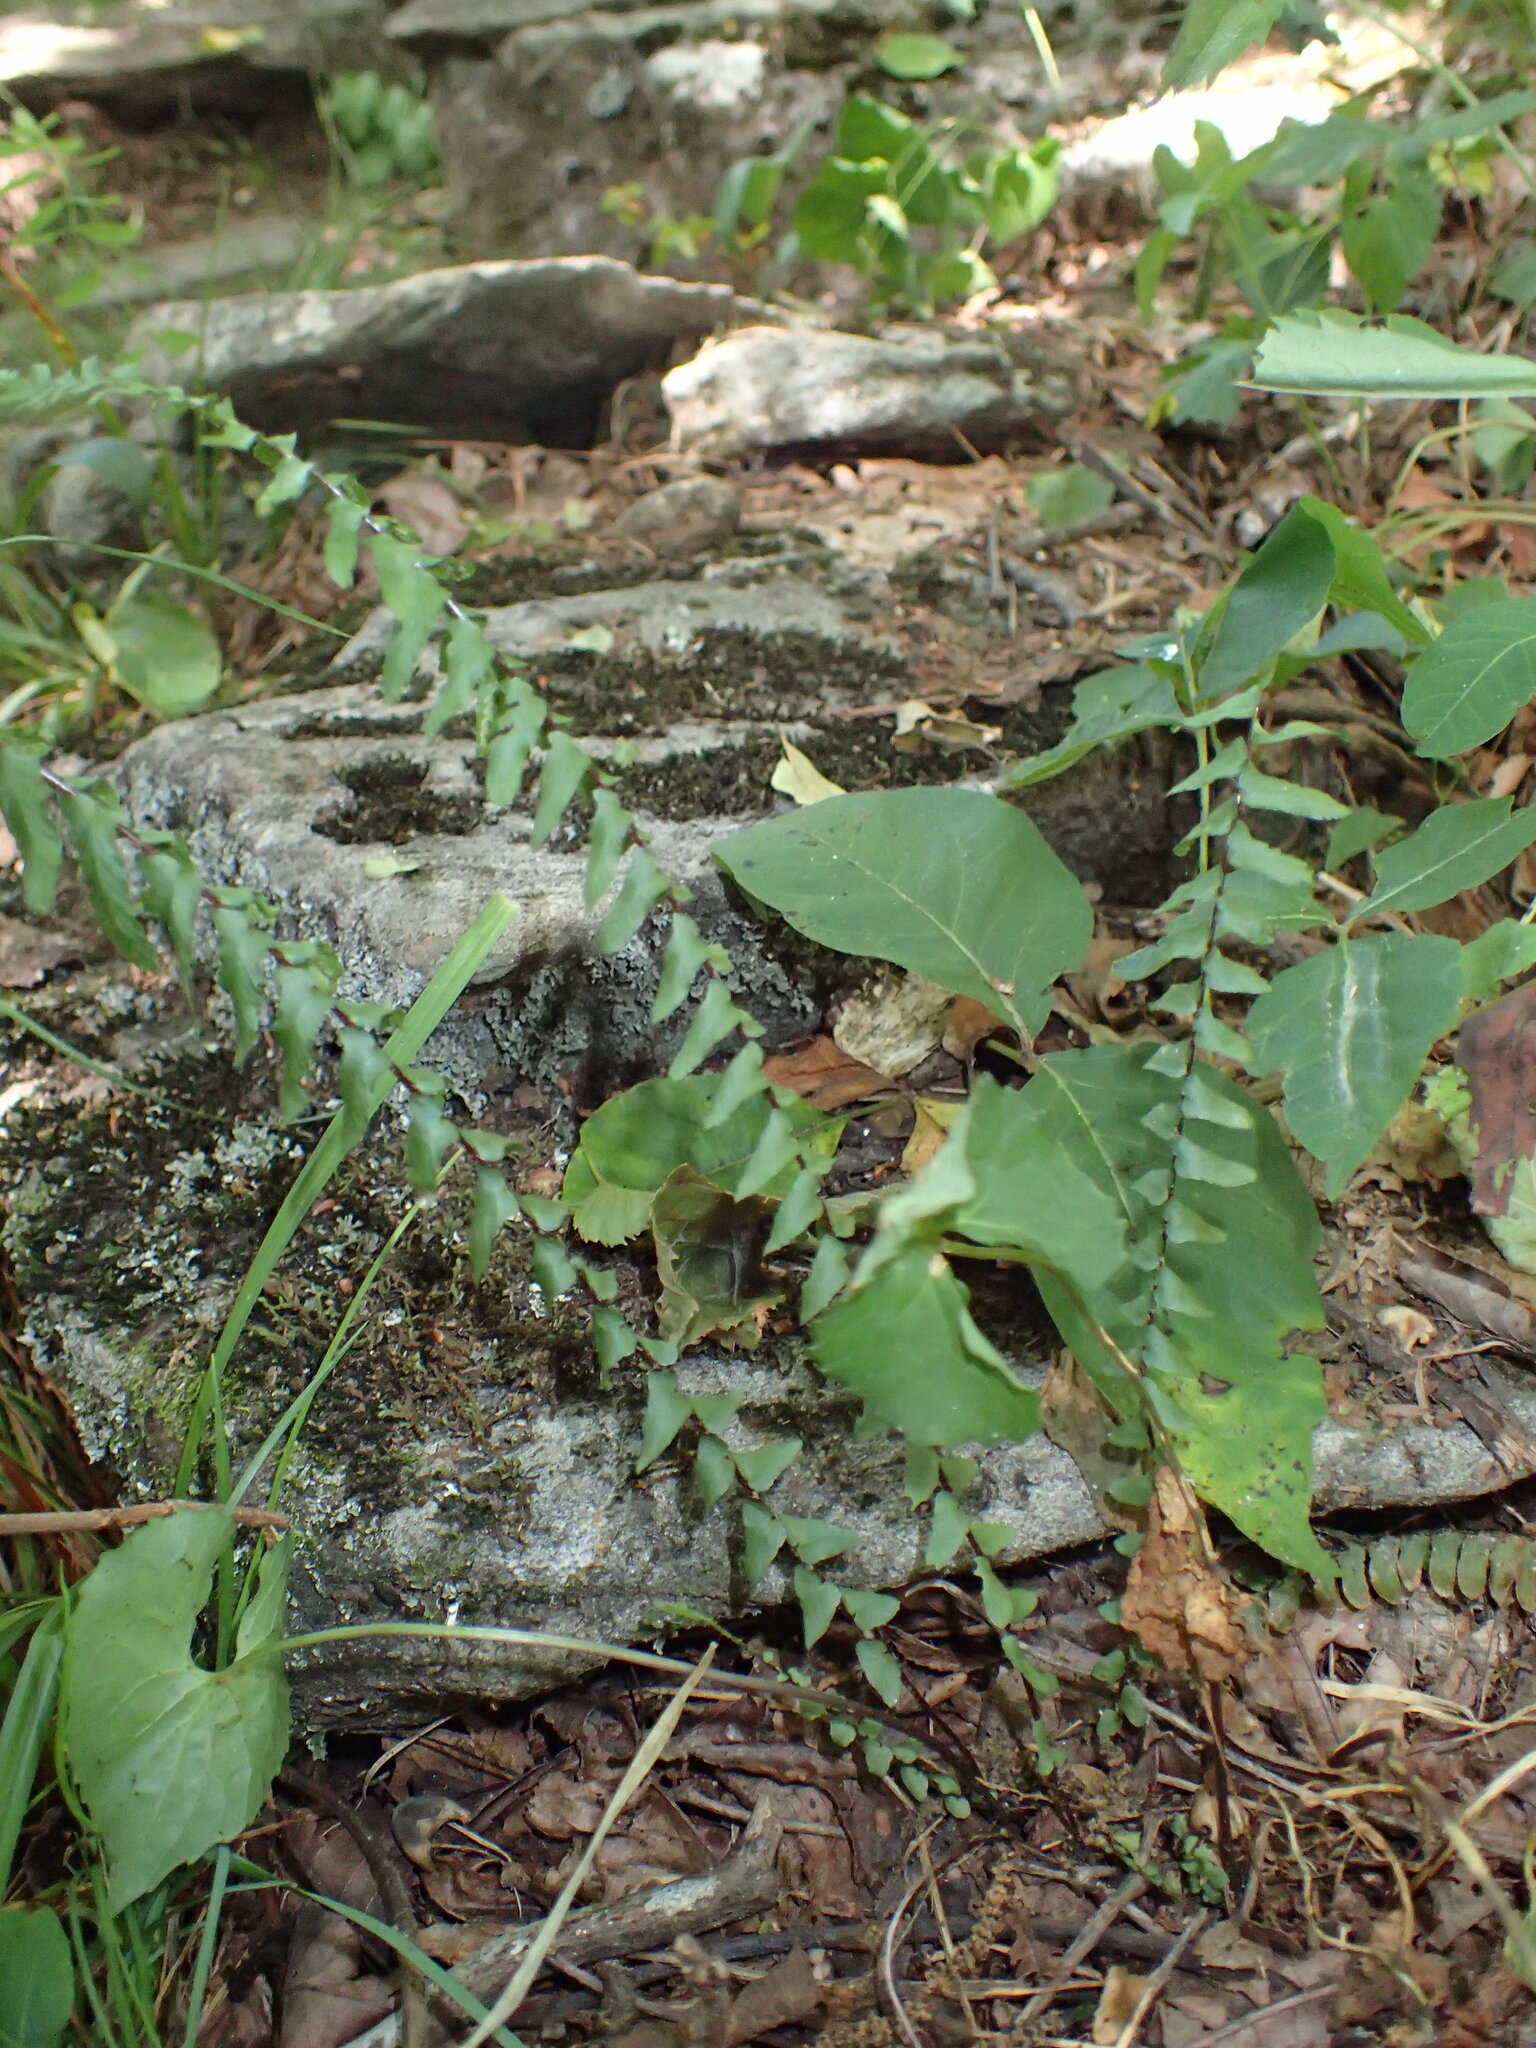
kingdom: Plantae
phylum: Tracheophyta
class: Polypodiopsida
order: Polypodiales
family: Aspleniaceae
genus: Asplenium
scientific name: Asplenium platyneuron
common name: Ebony spleenwort
